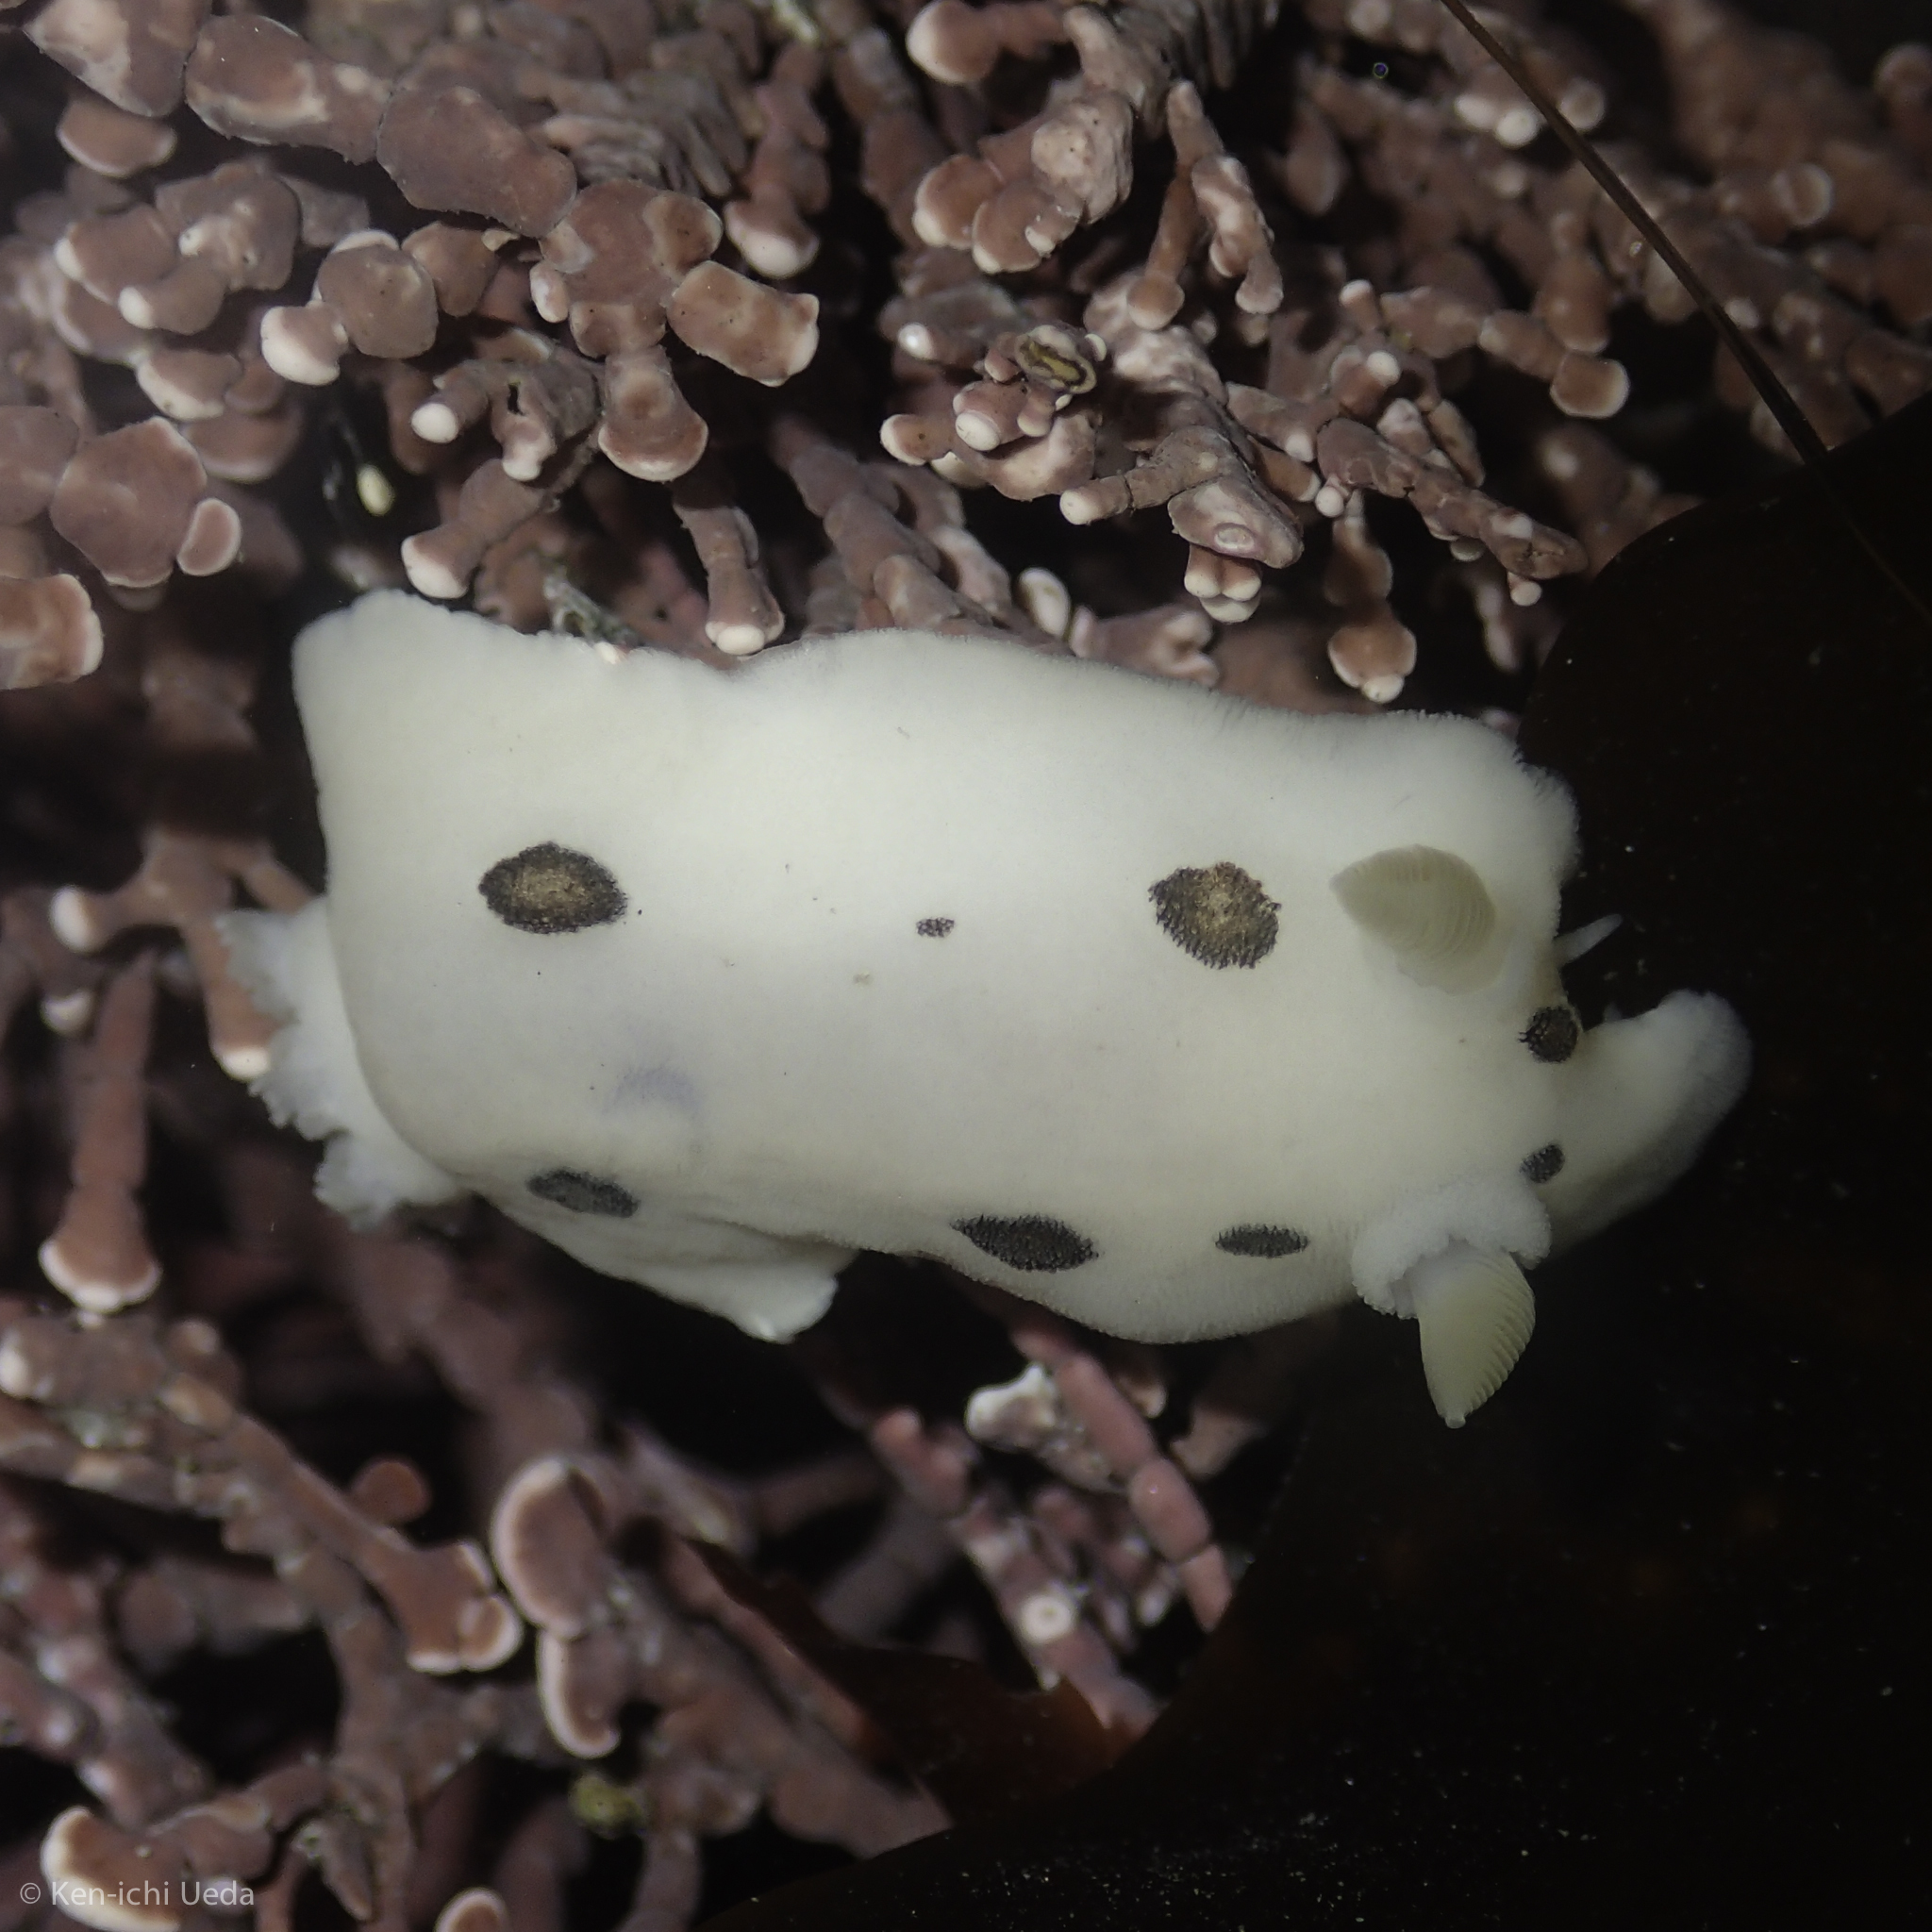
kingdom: Animalia
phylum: Mollusca
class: Gastropoda
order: Nudibranchia
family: Discodorididae
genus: Diaulula
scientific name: Diaulula sandiegensis
